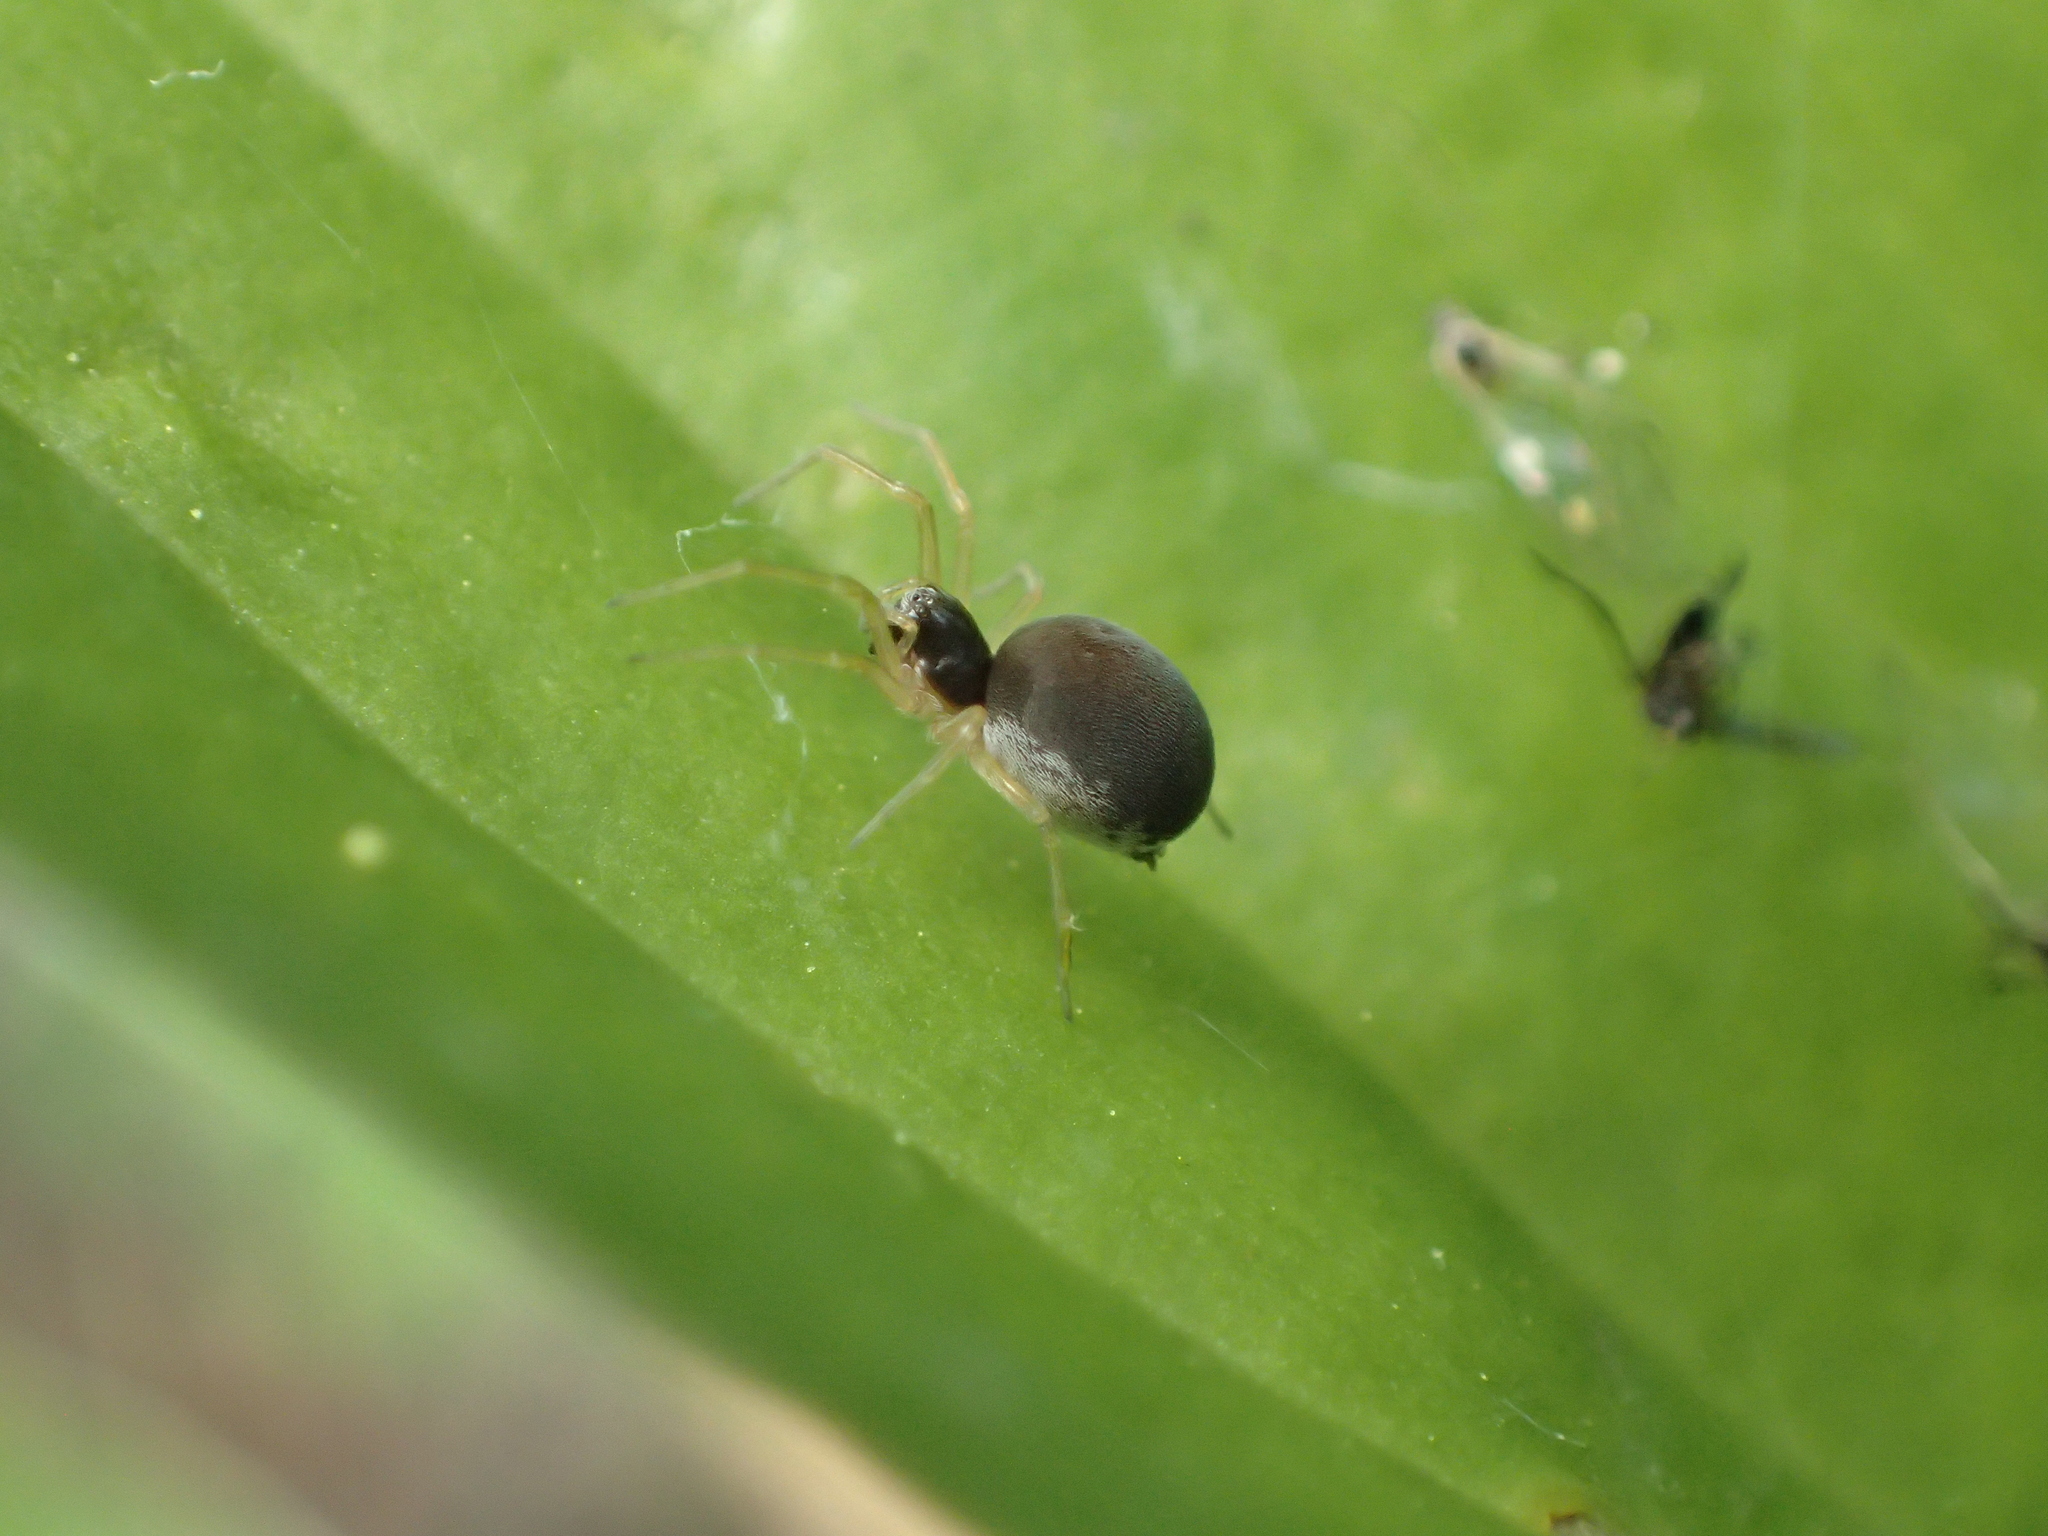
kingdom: Animalia
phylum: Arthropoda
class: Arachnida
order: Araneae
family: Dictynidae
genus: Emblyna
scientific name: Emblyna sublata
